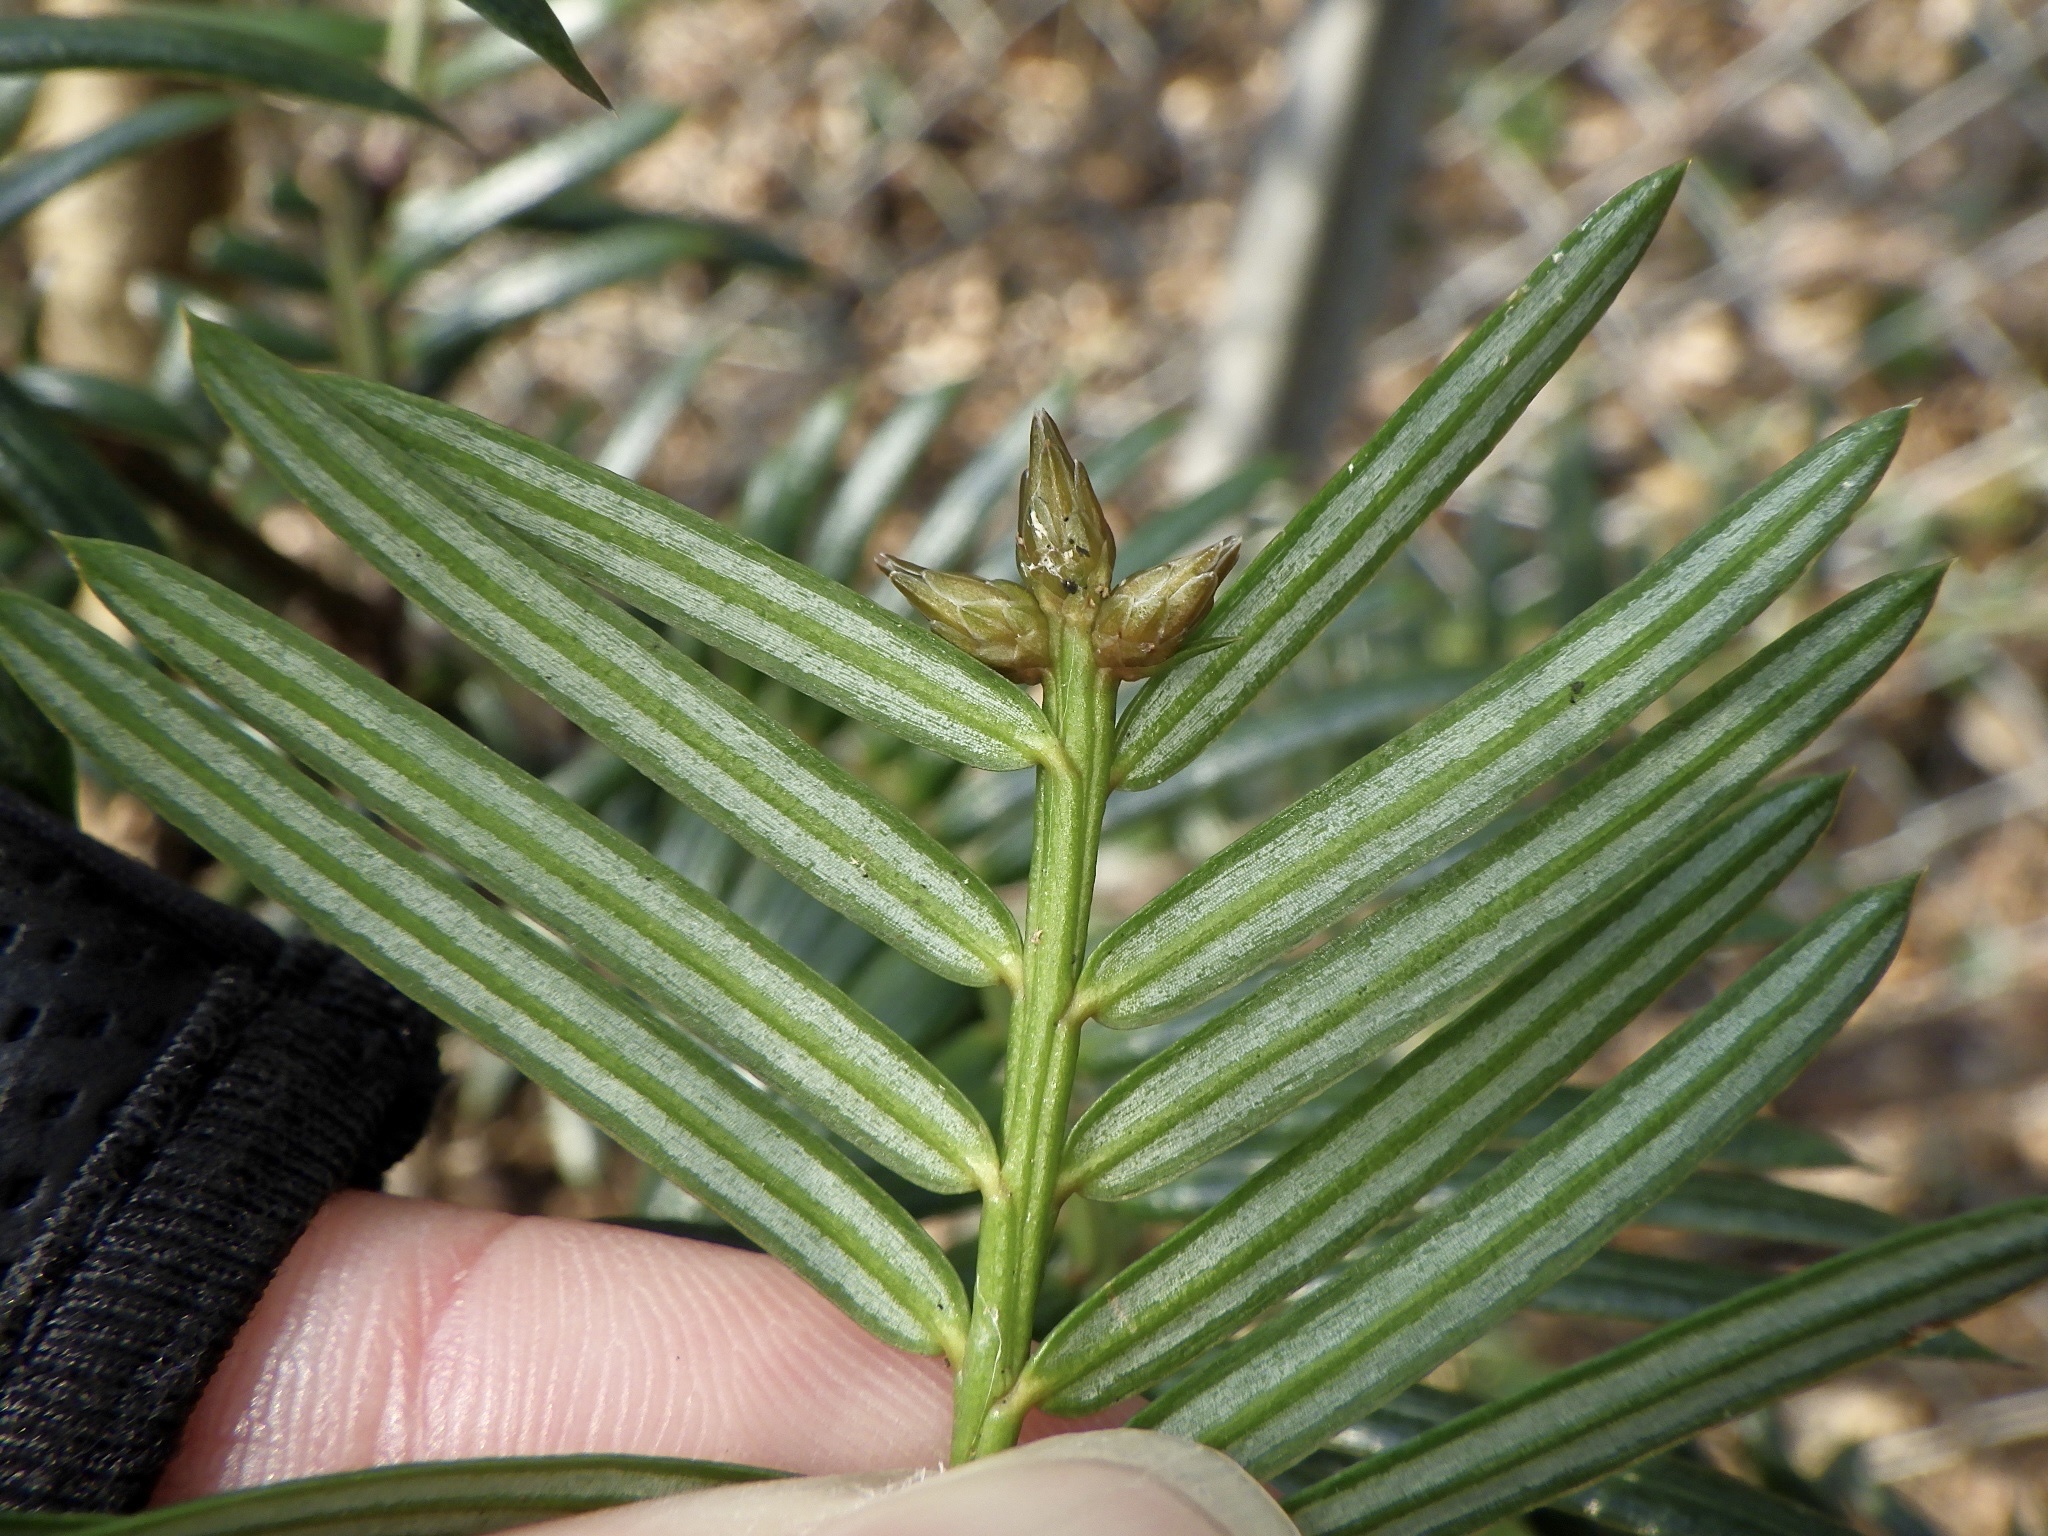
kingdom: Plantae
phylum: Tracheophyta
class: Pinopsida
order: Pinales
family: Cephalotaxaceae
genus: Cephalotaxus
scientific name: Cephalotaxus harringtonii
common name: Harrington's plum yew
